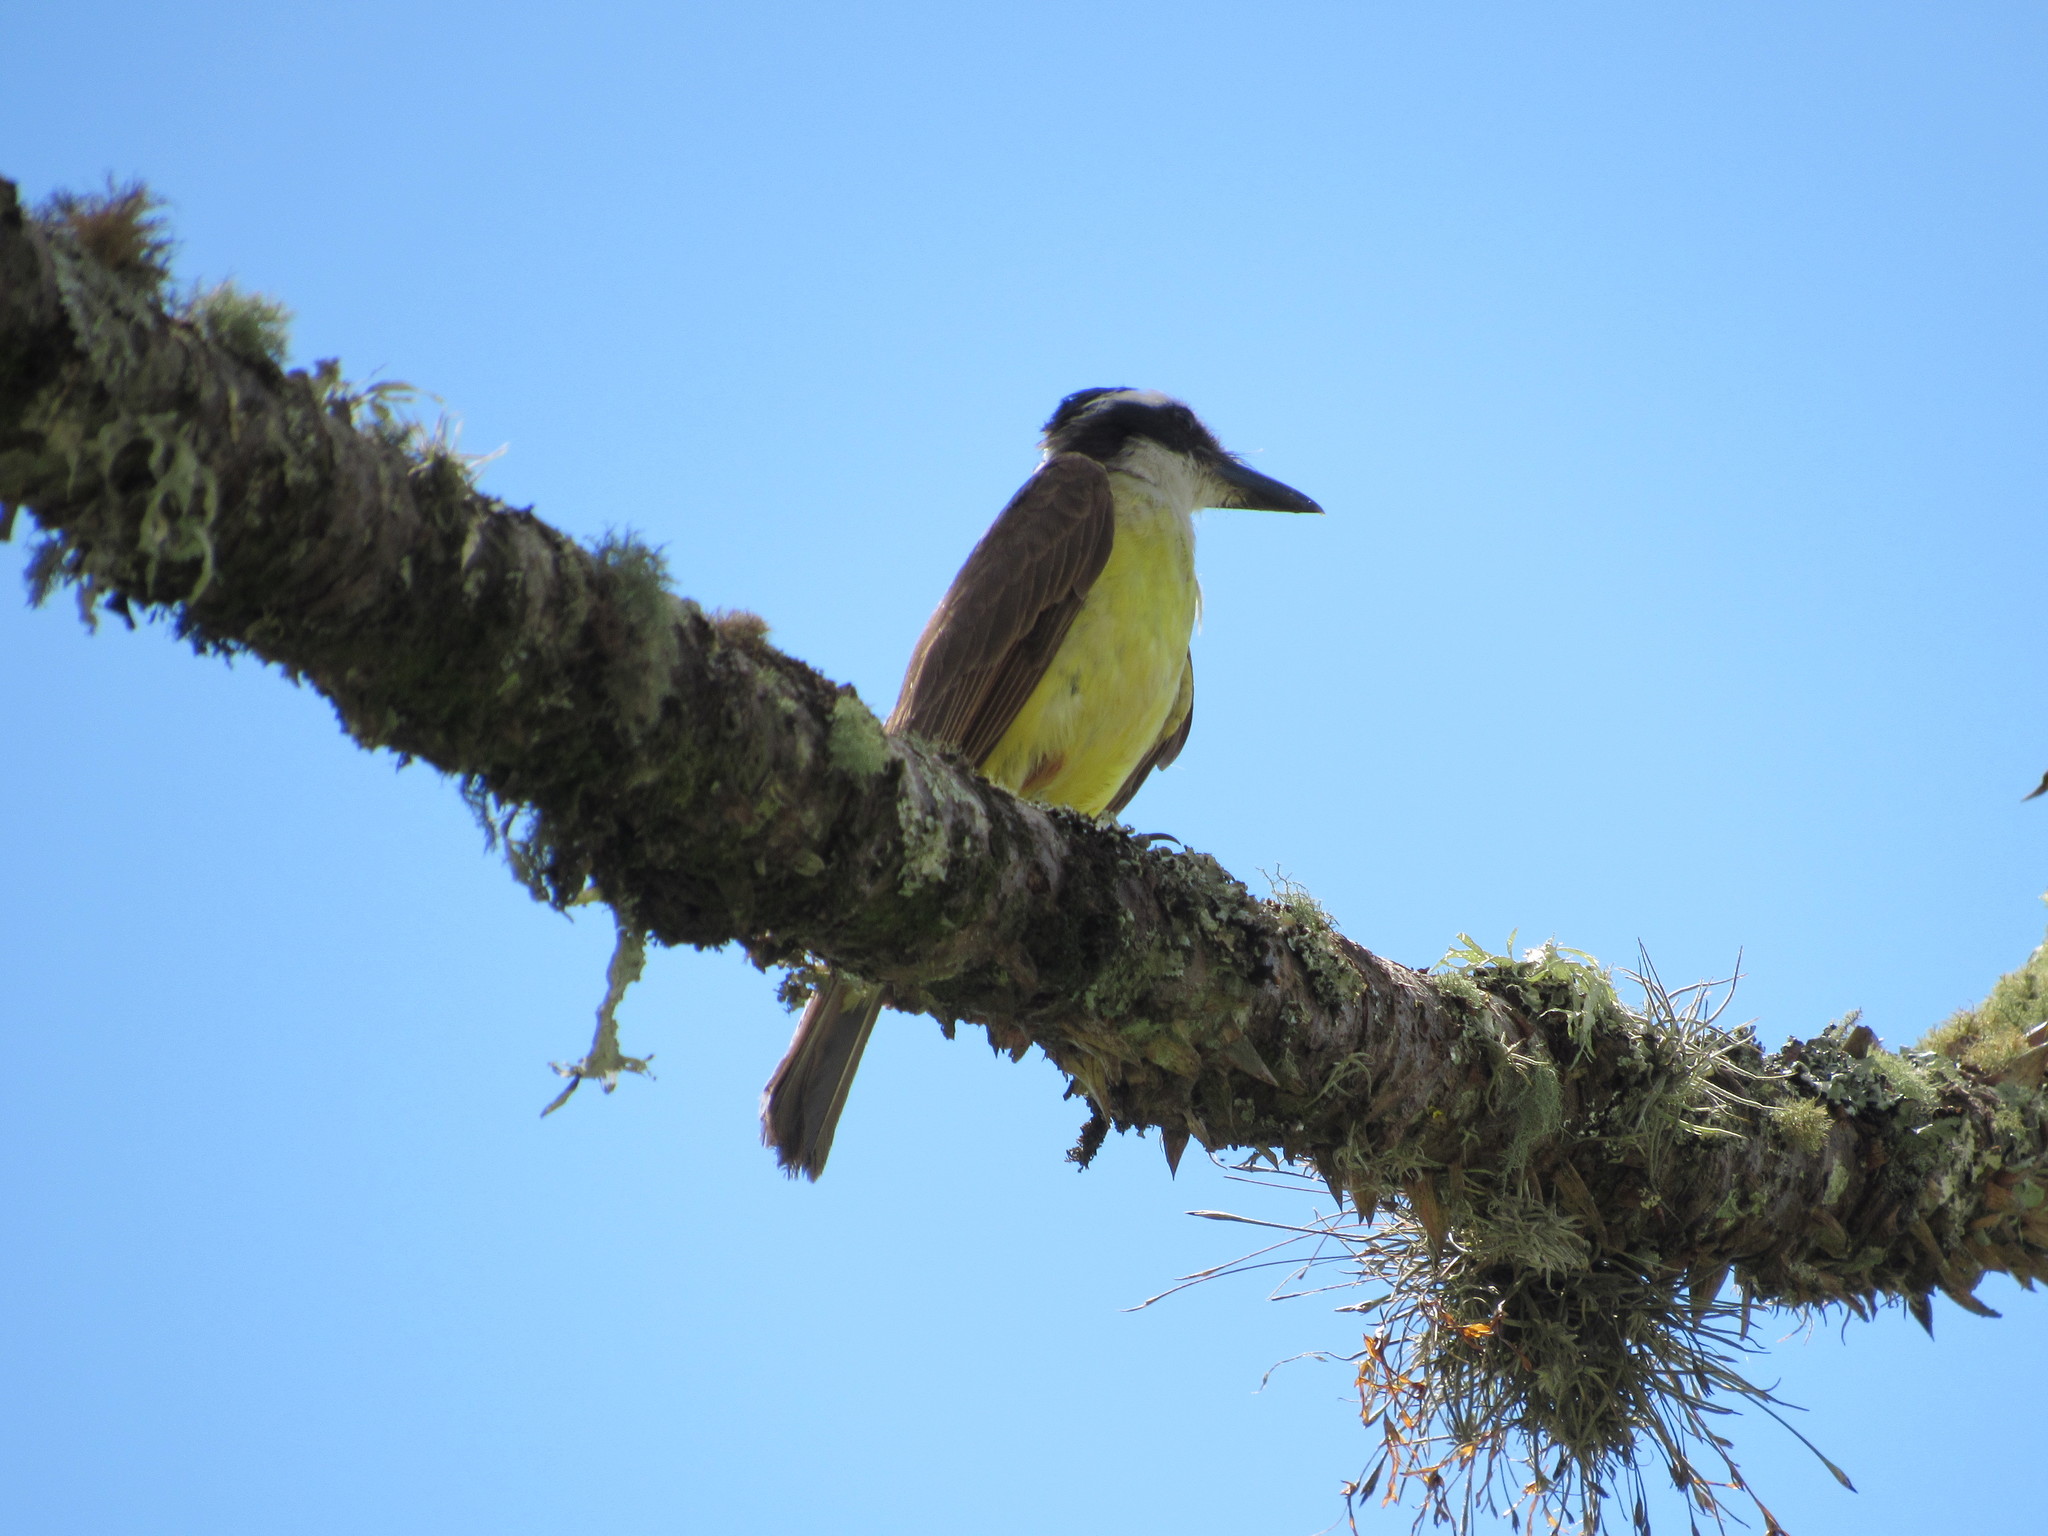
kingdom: Animalia
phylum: Chordata
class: Aves
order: Passeriformes
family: Tyrannidae
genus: Pitangus
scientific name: Pitangus sulphuratus
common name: Great kiskadee
